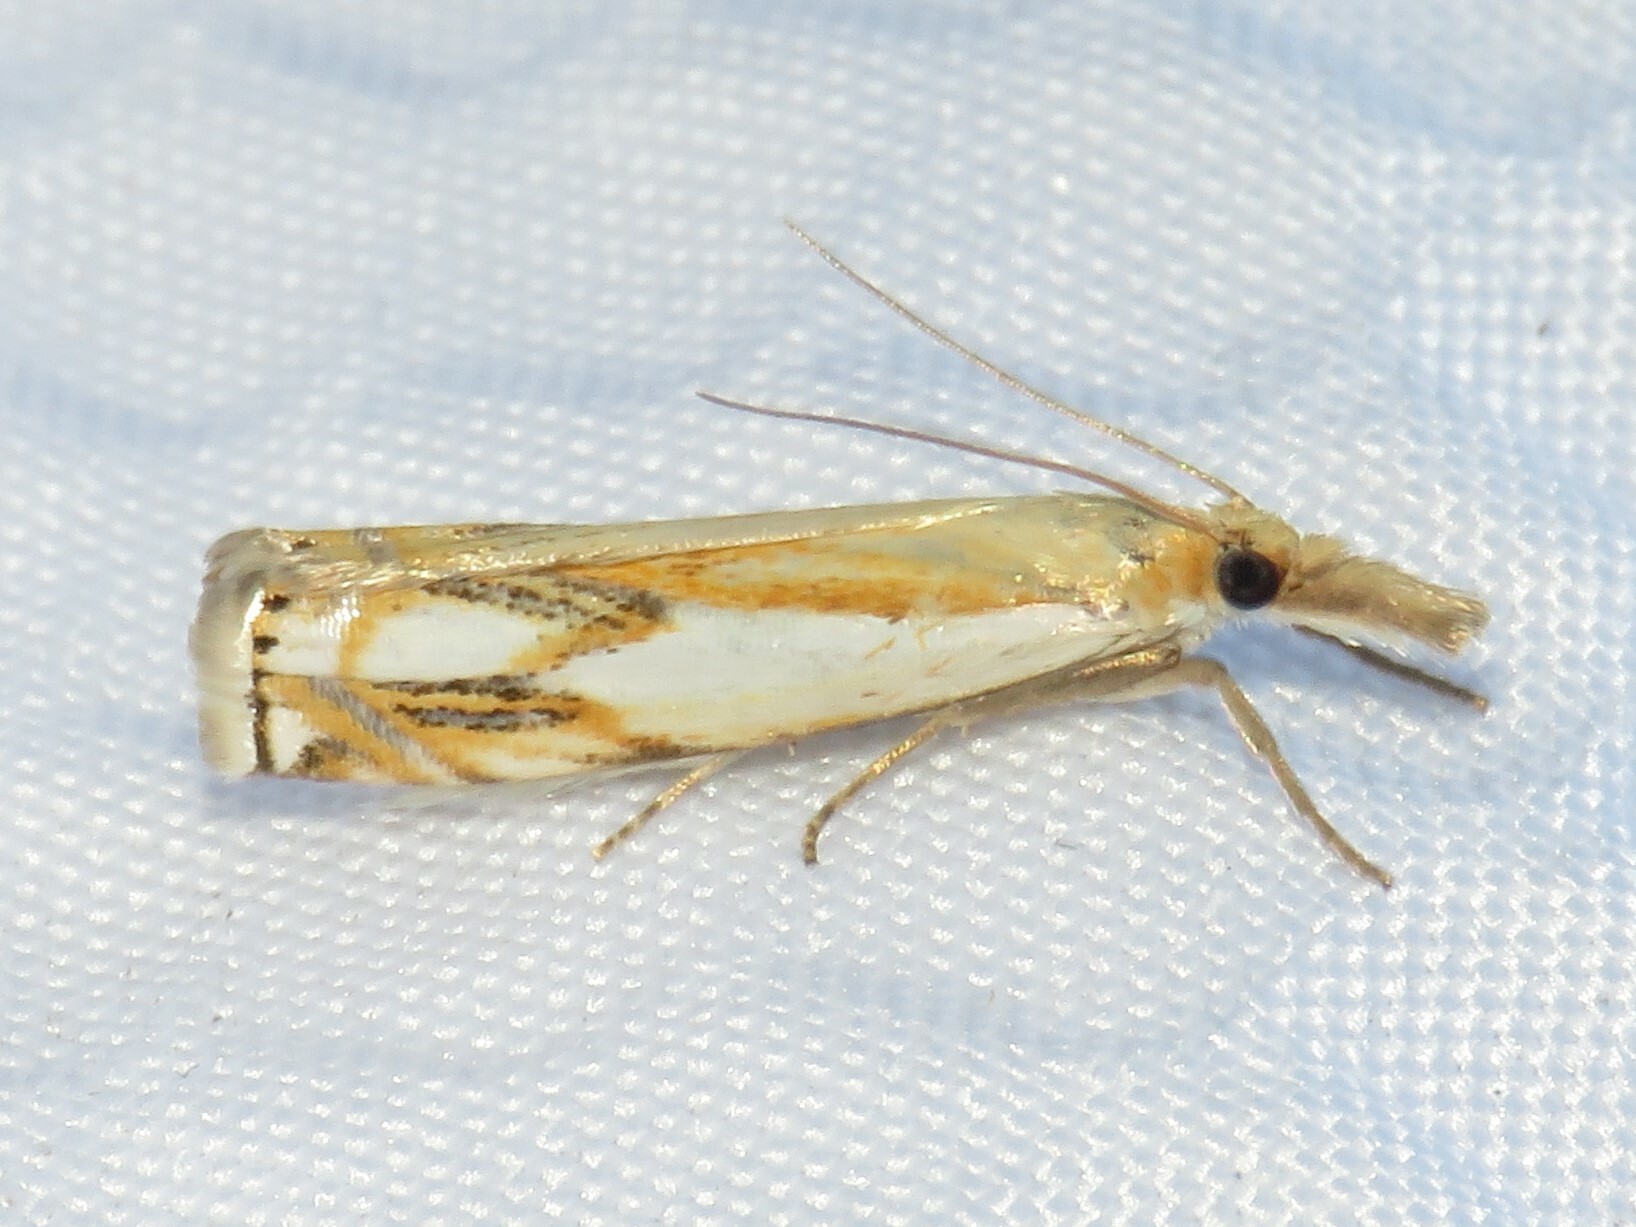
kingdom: Animalia
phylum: Arthropoda
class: Insecta
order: Lepidoptera
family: Crambidae
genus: Crambus
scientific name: Crambus agitatellus
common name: Double-banded grass-veneer
